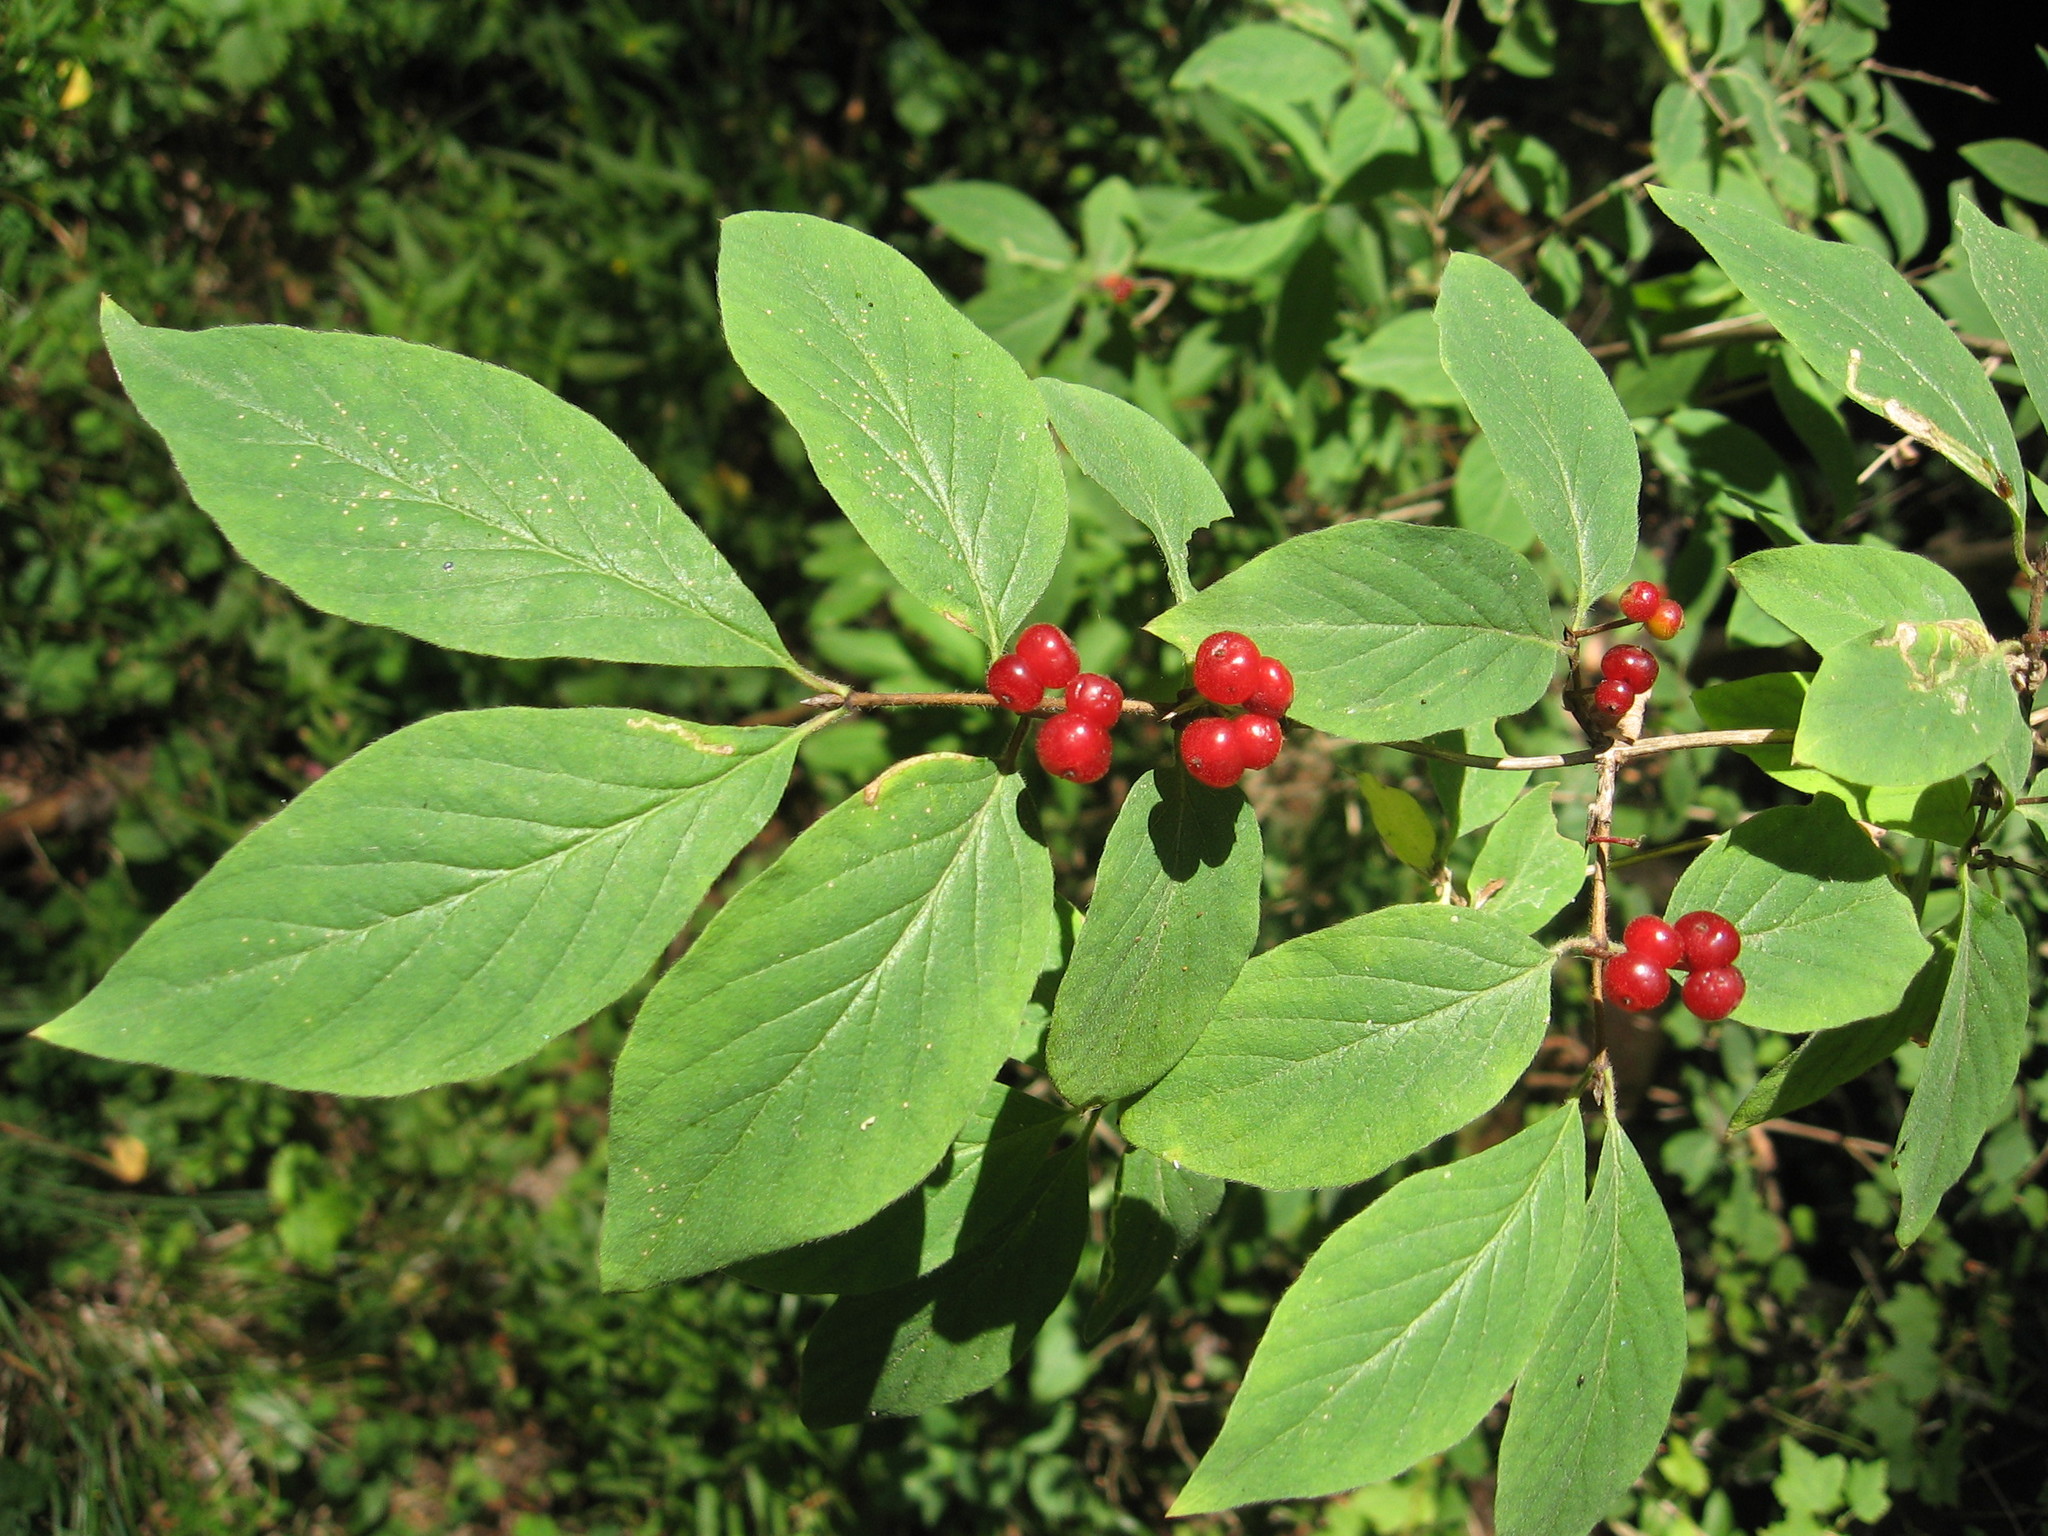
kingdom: Plantae
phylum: Tracheophyta
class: Magnoliopsida
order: Dipsacales
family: Caprifoliaceae
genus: Lonicera
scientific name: Lonicera xylosteum
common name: Fly honeysuckle
